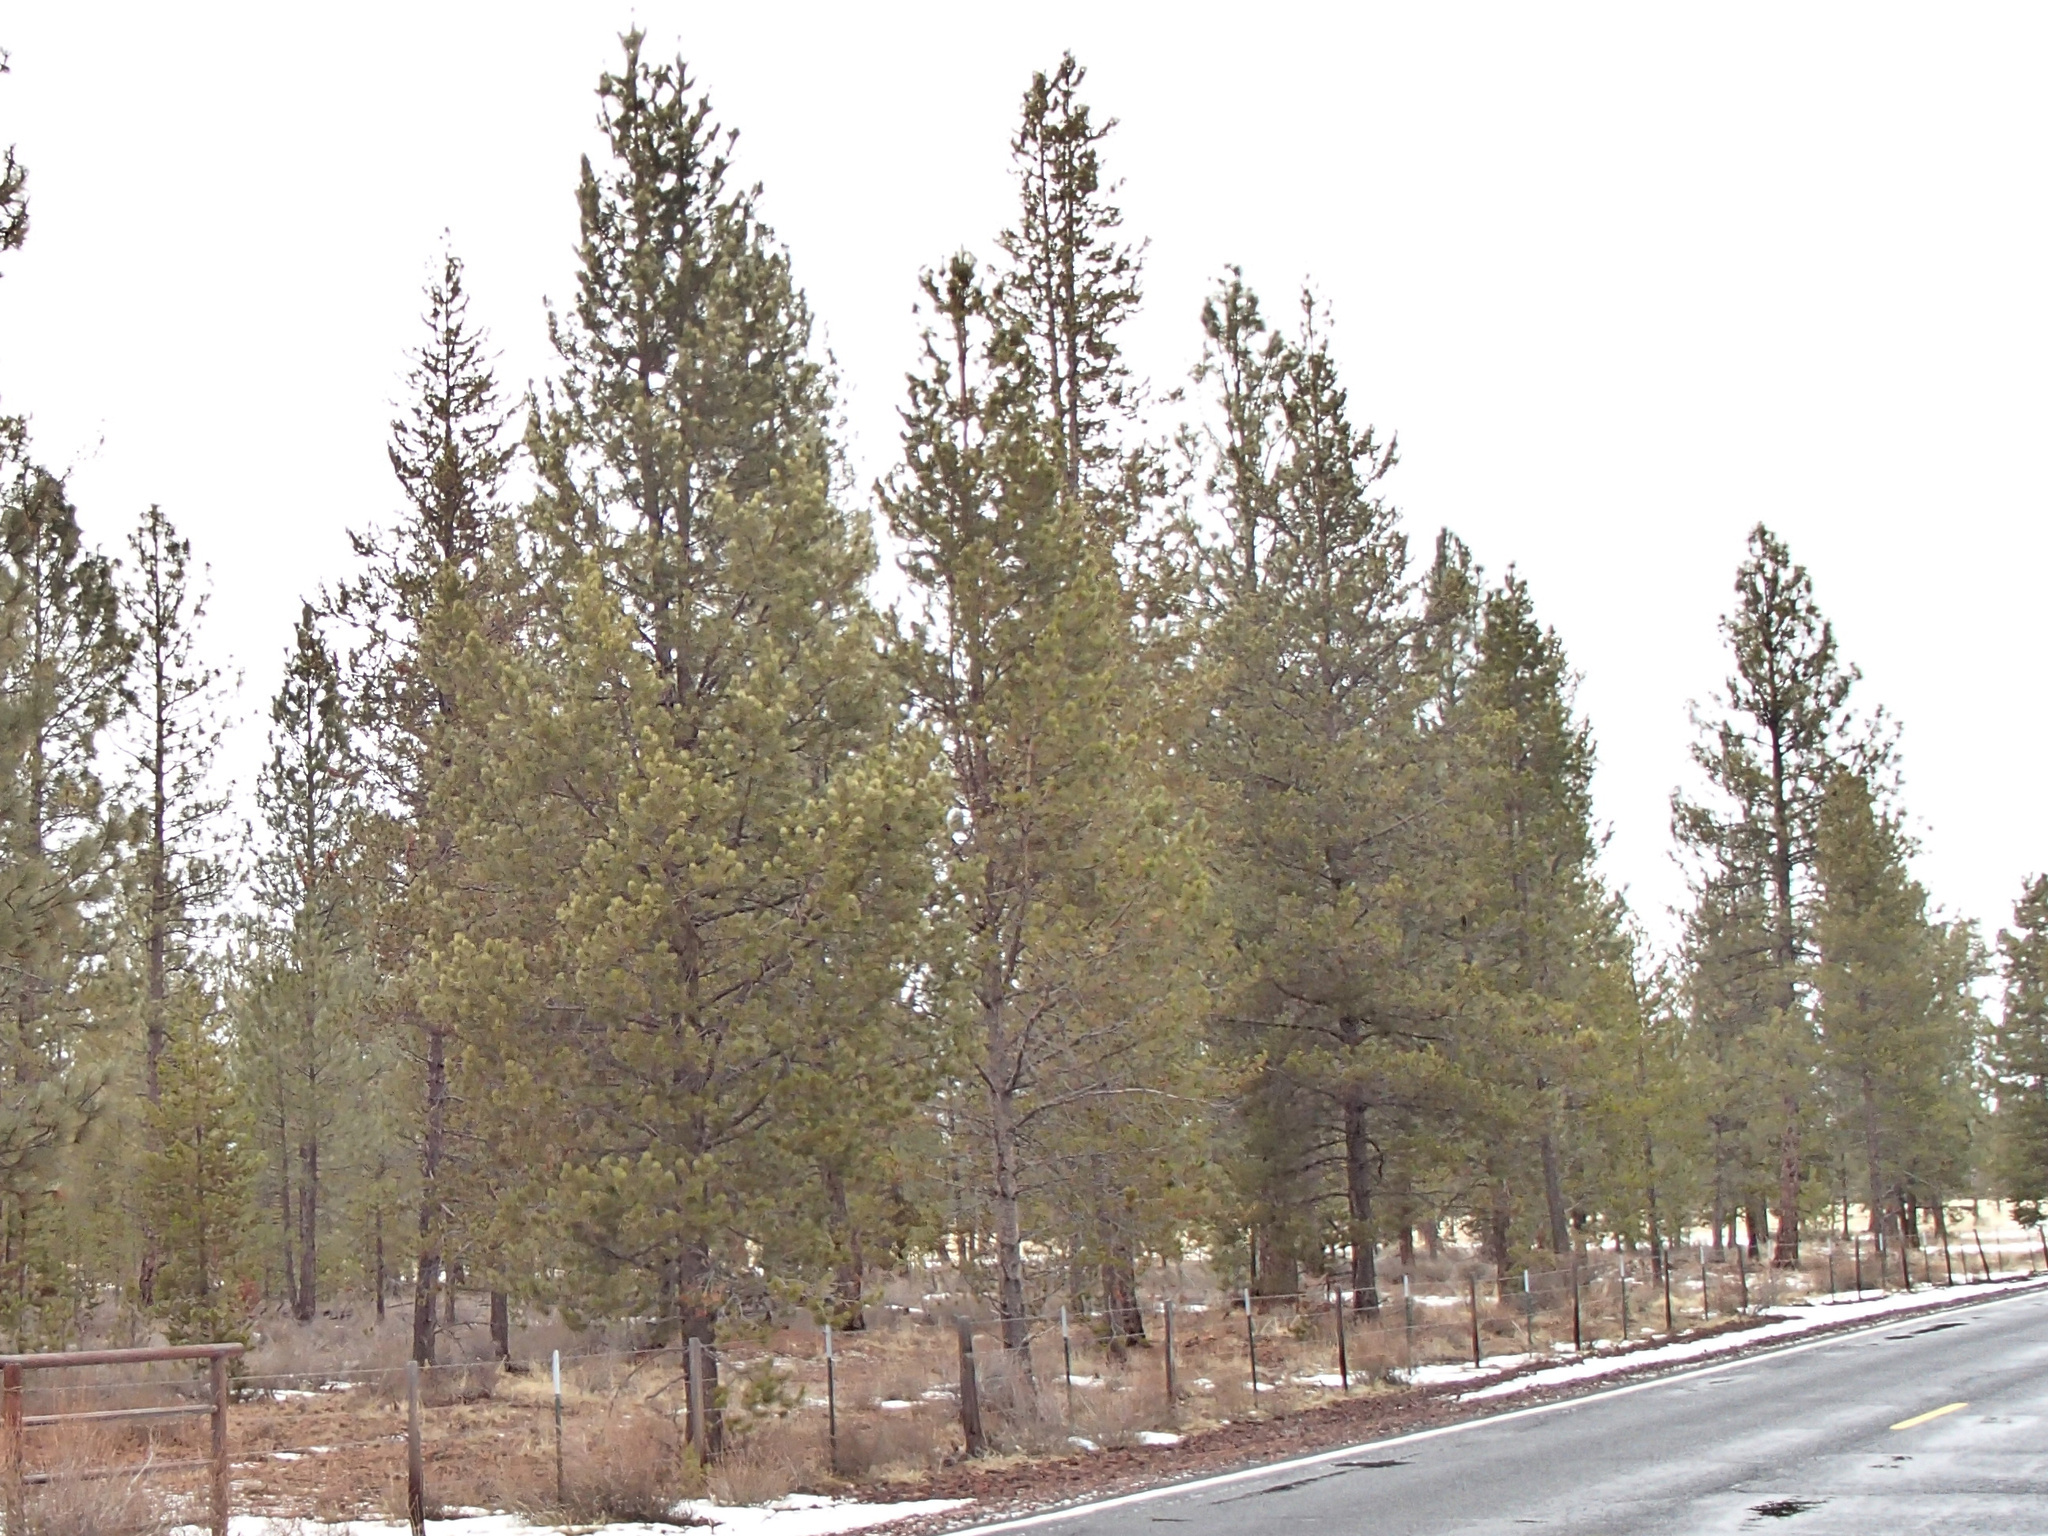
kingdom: Plantae
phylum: Tracheophyta
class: Pinopsida
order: Pinales
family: Pinaceae
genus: Pinus
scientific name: Pinus contorta
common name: Lodgepole pine
